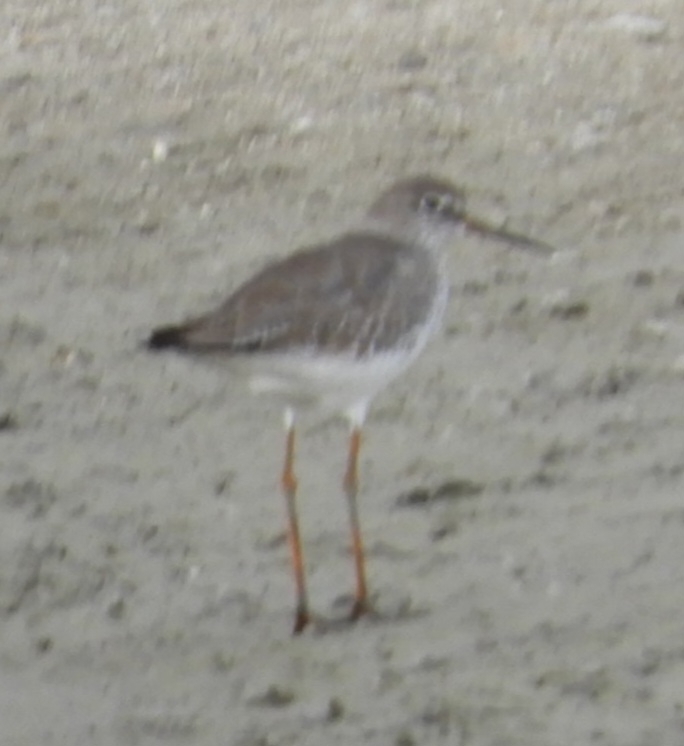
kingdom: Animalia
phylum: Chordata
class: Aves
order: Charadriiformes
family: Scolopacidae
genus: Tringa
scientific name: Tringa totanus
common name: Common redshank
